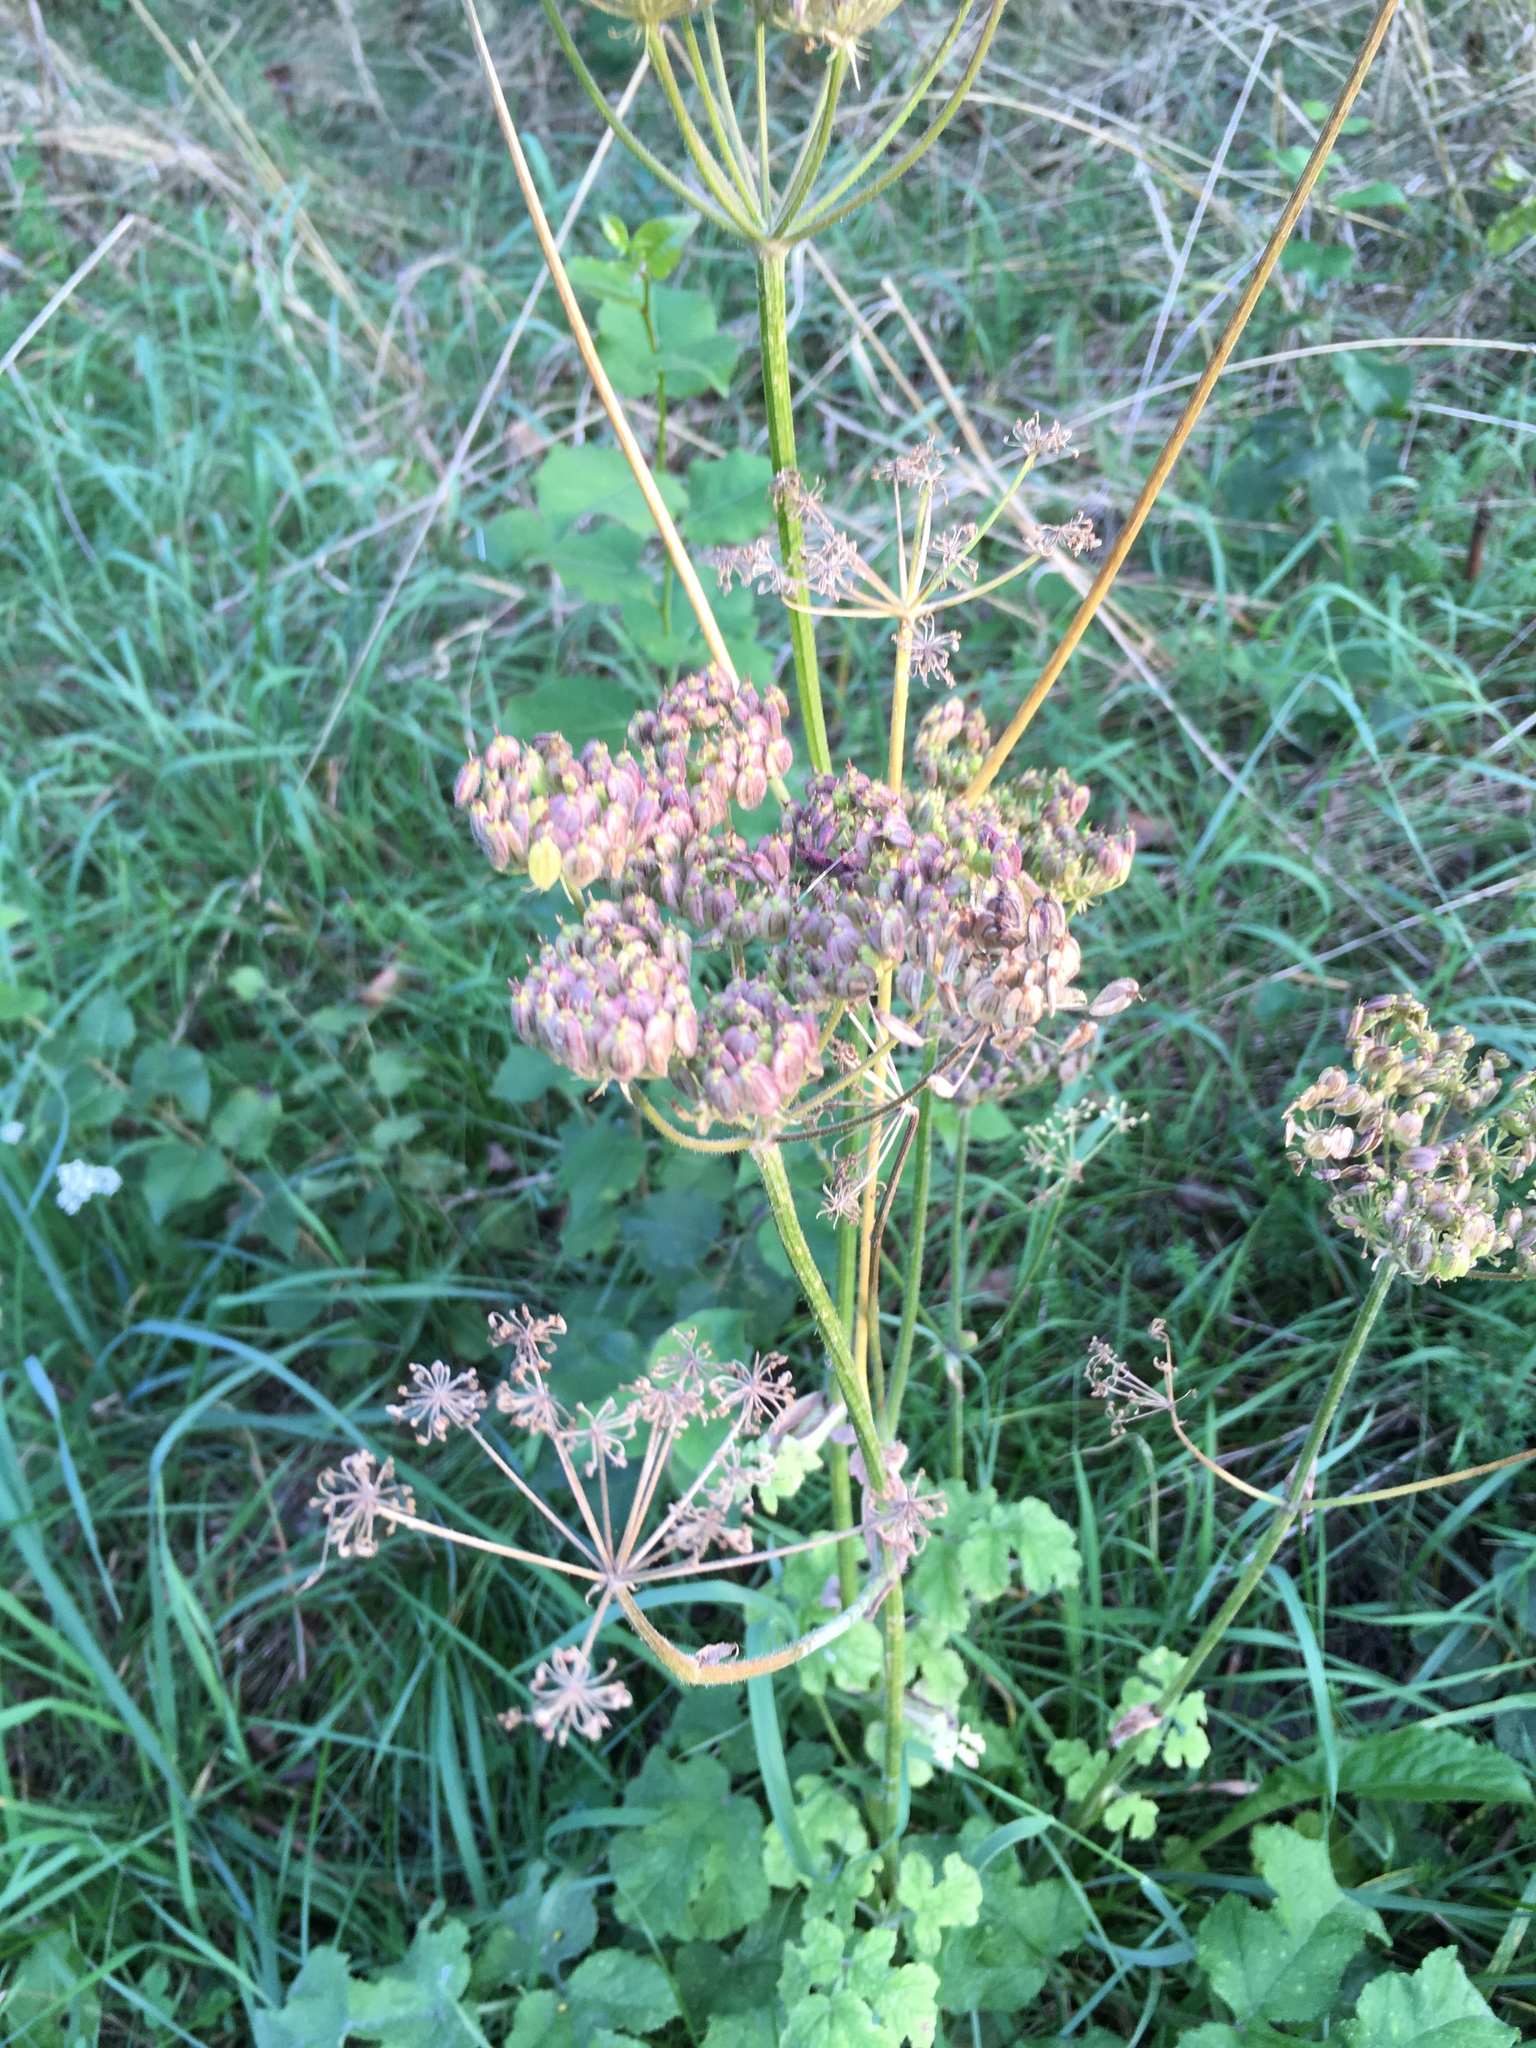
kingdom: Plantae
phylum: Tracheophyta
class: Magnoliopsida
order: Apiales
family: Apiaceae
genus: Heracleum
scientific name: Heracleum sphondylium
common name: Hogweed
